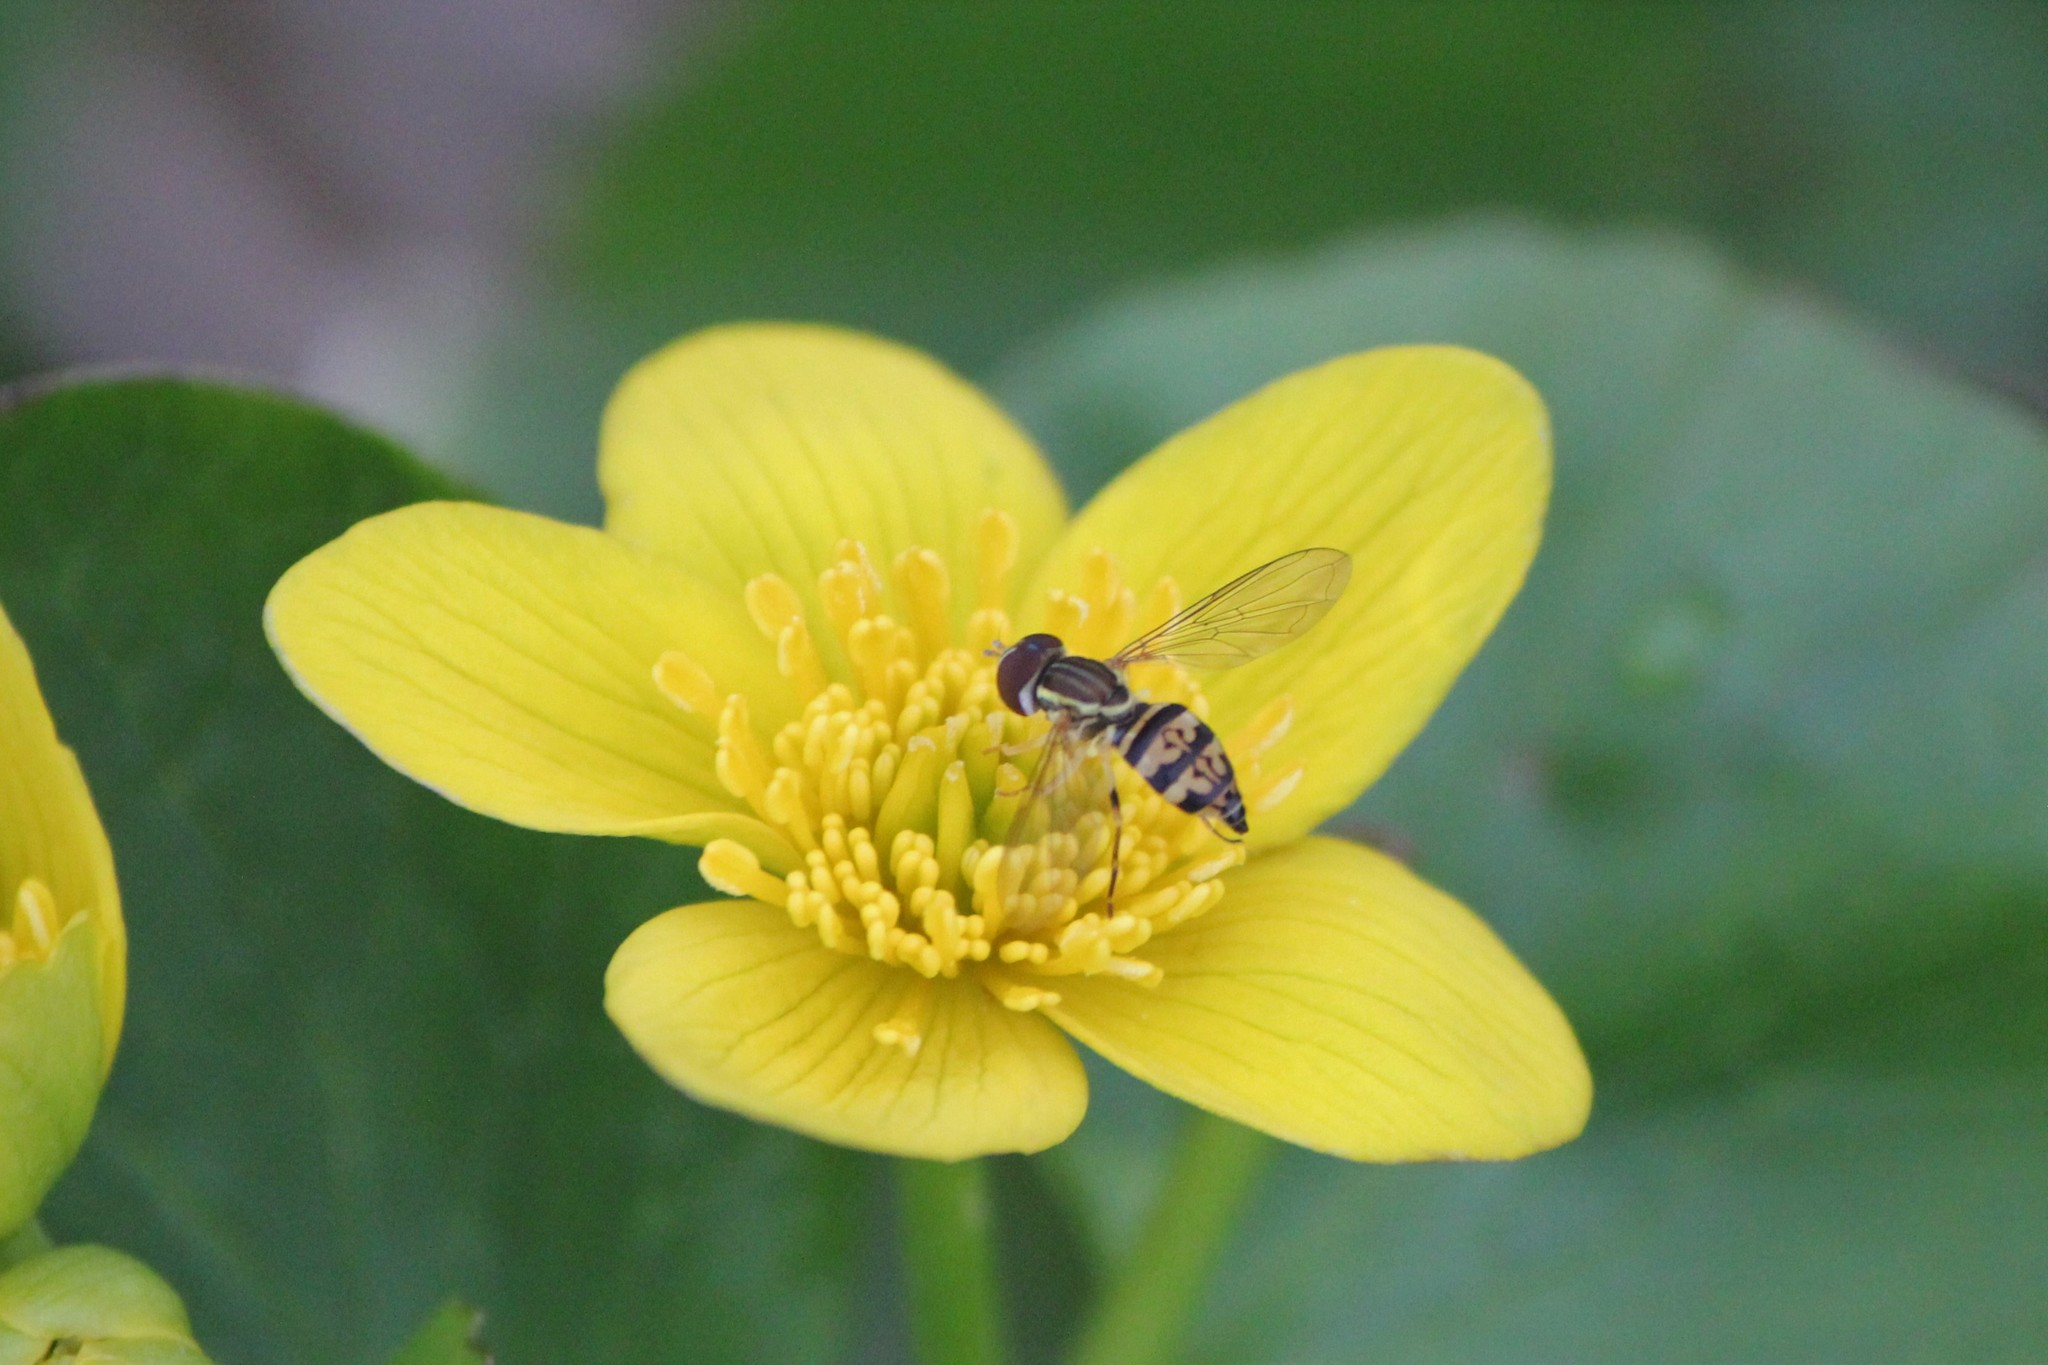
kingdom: Animalia
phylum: Arthropoda
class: Insecta
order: Diptera
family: Syrphidae
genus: Toxomerus
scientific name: Toxomerus geminatus
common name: Eastern calligrapher
